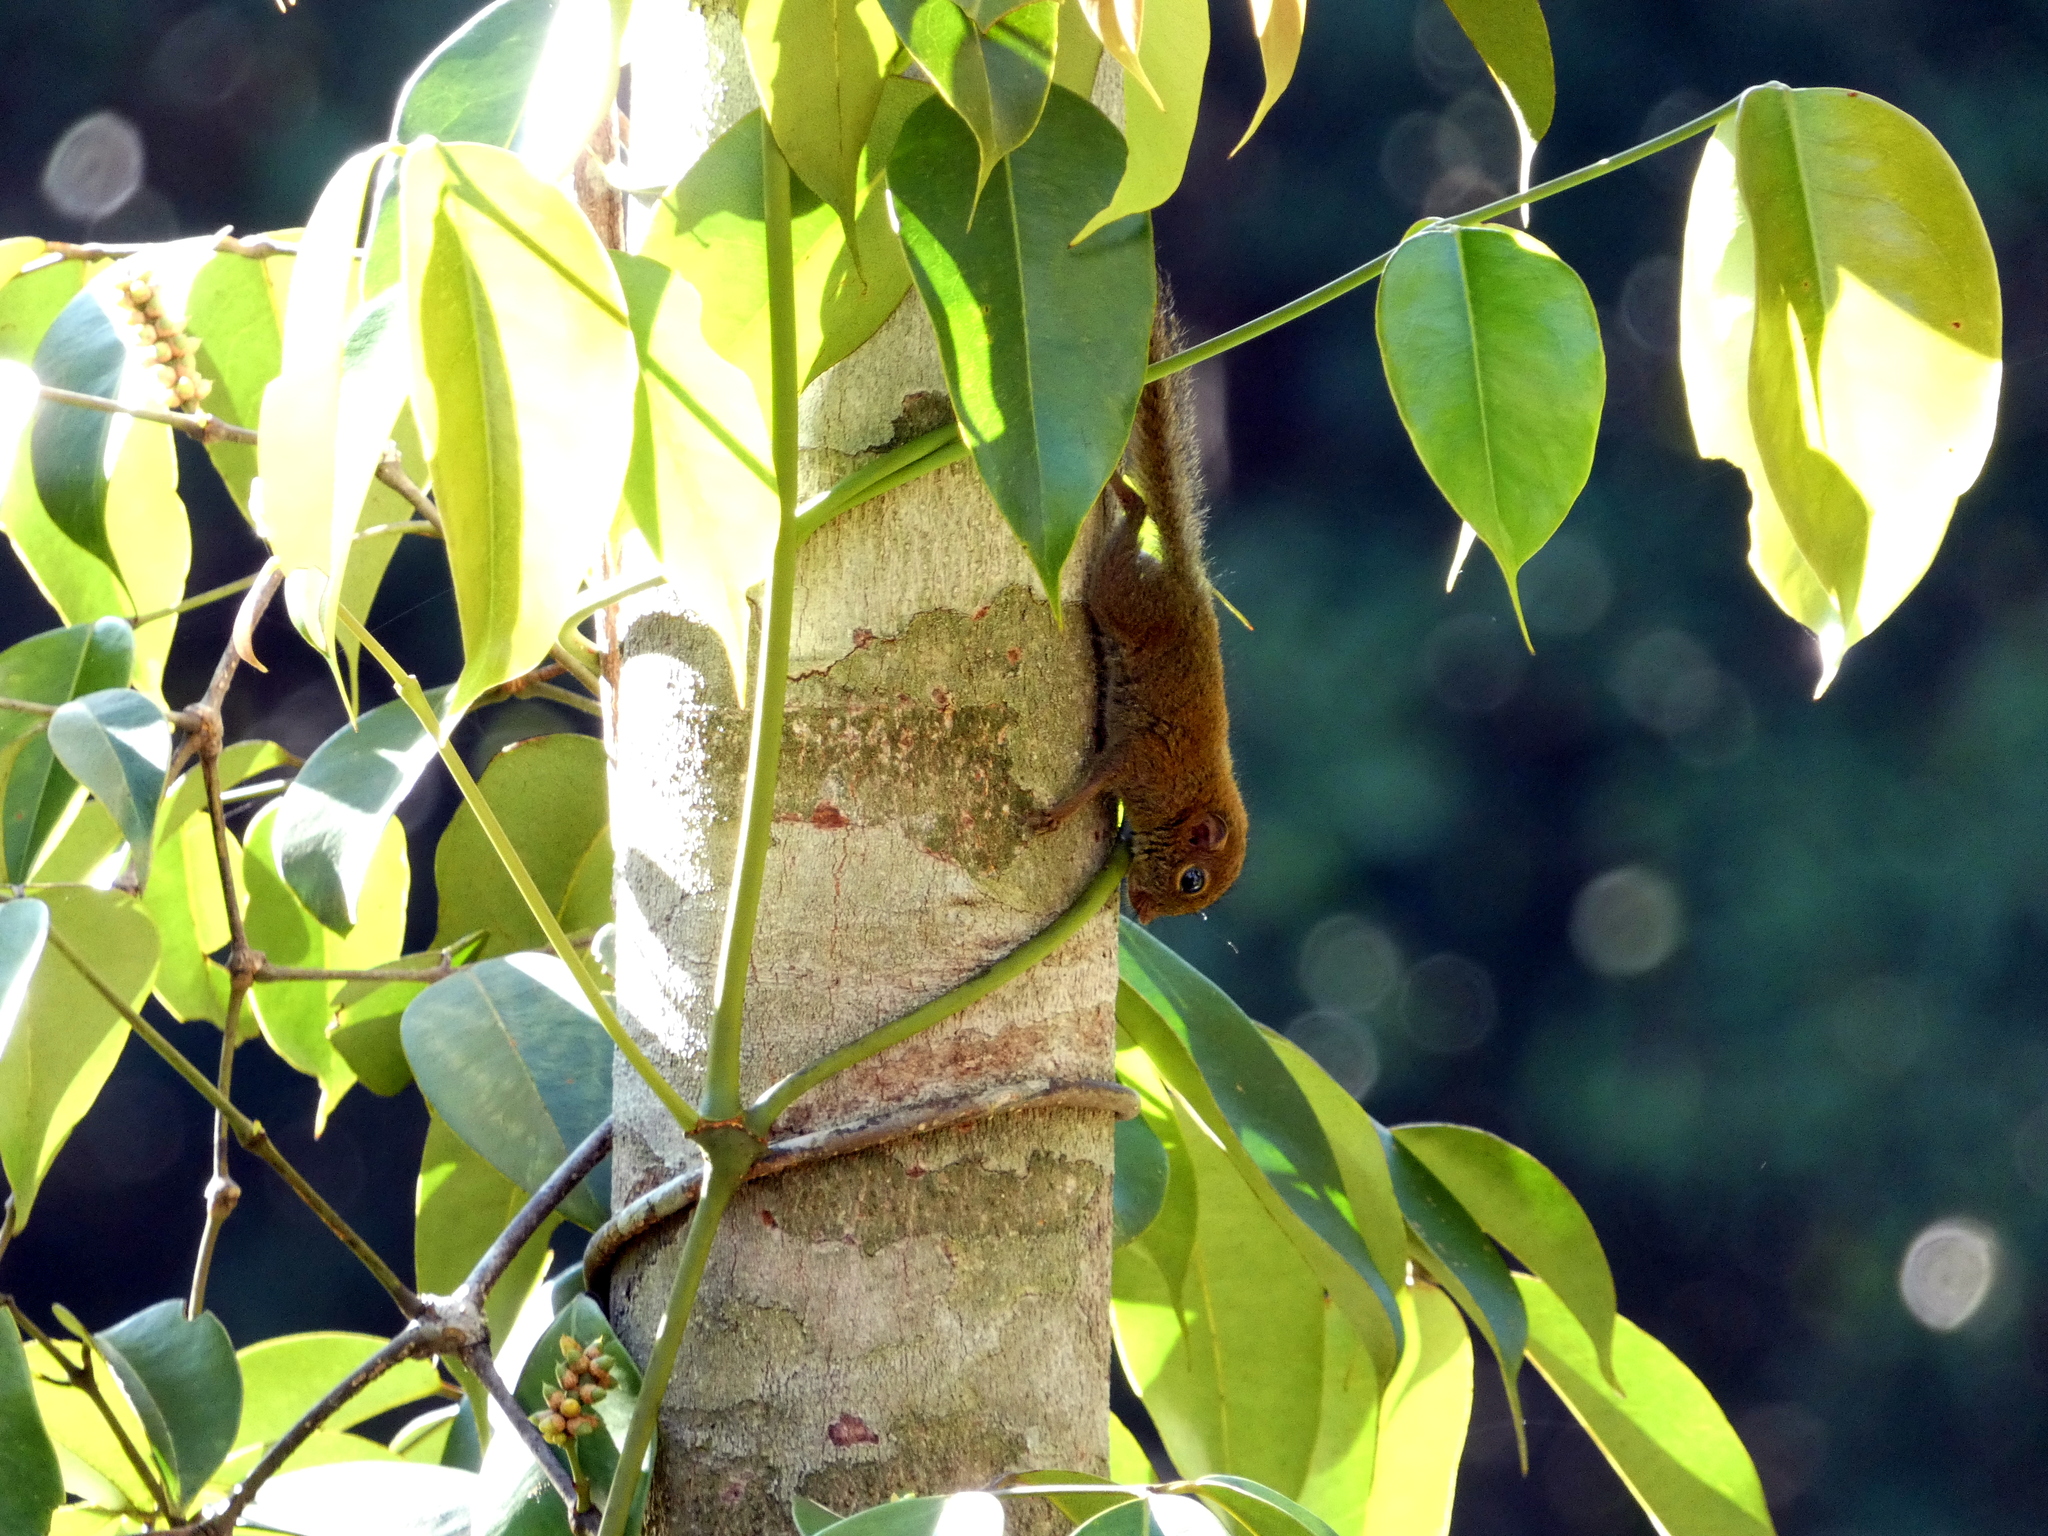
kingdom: Animalia
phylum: Chordata
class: Mammalia
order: Rodentia
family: Sciuridae
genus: Exilisciurus
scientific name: Exilisciurus exilis
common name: Least pygmy squirrel
